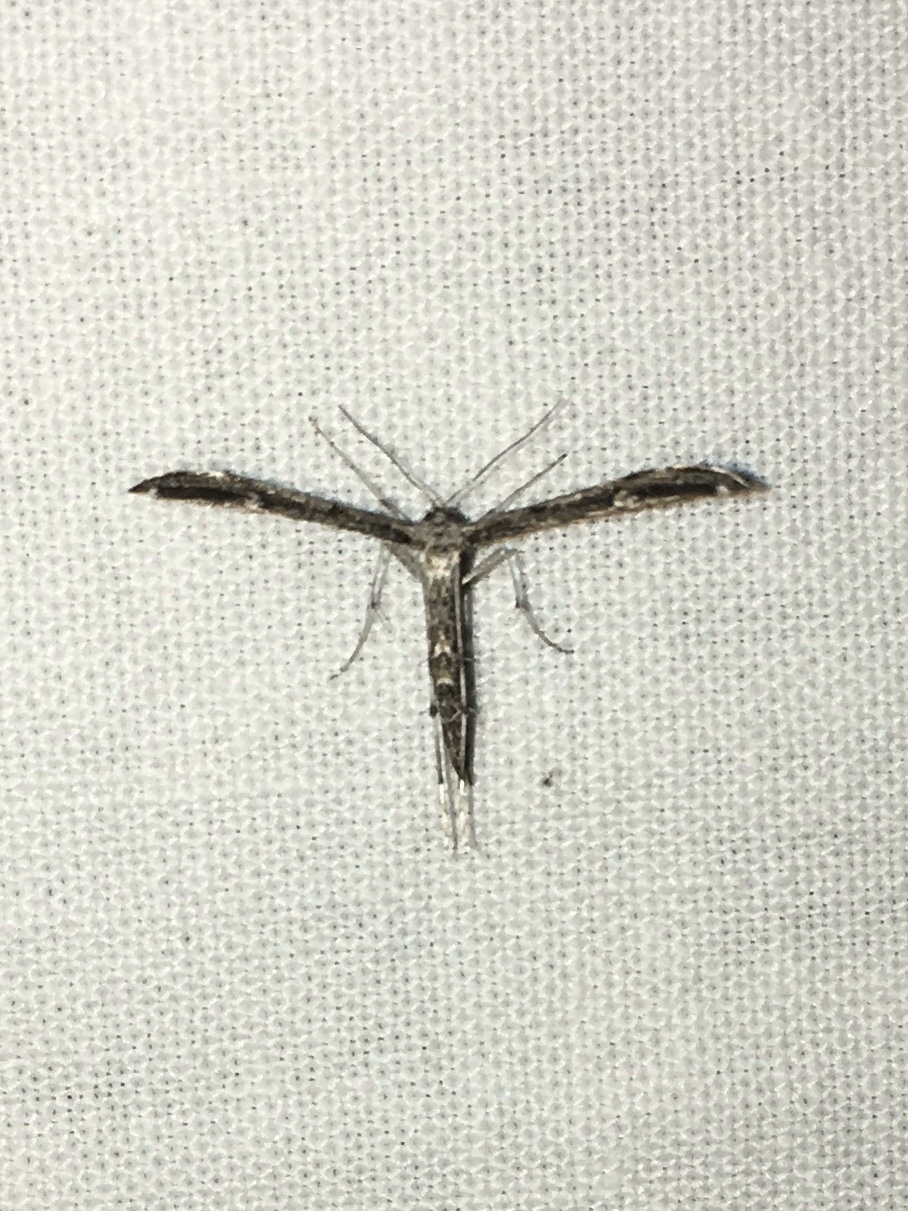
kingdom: Animalia
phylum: Arthropoda
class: Insecta
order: Lepidoptera
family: Pterophoridae
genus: Hellinsia
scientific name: Hellinsia inquinatus
